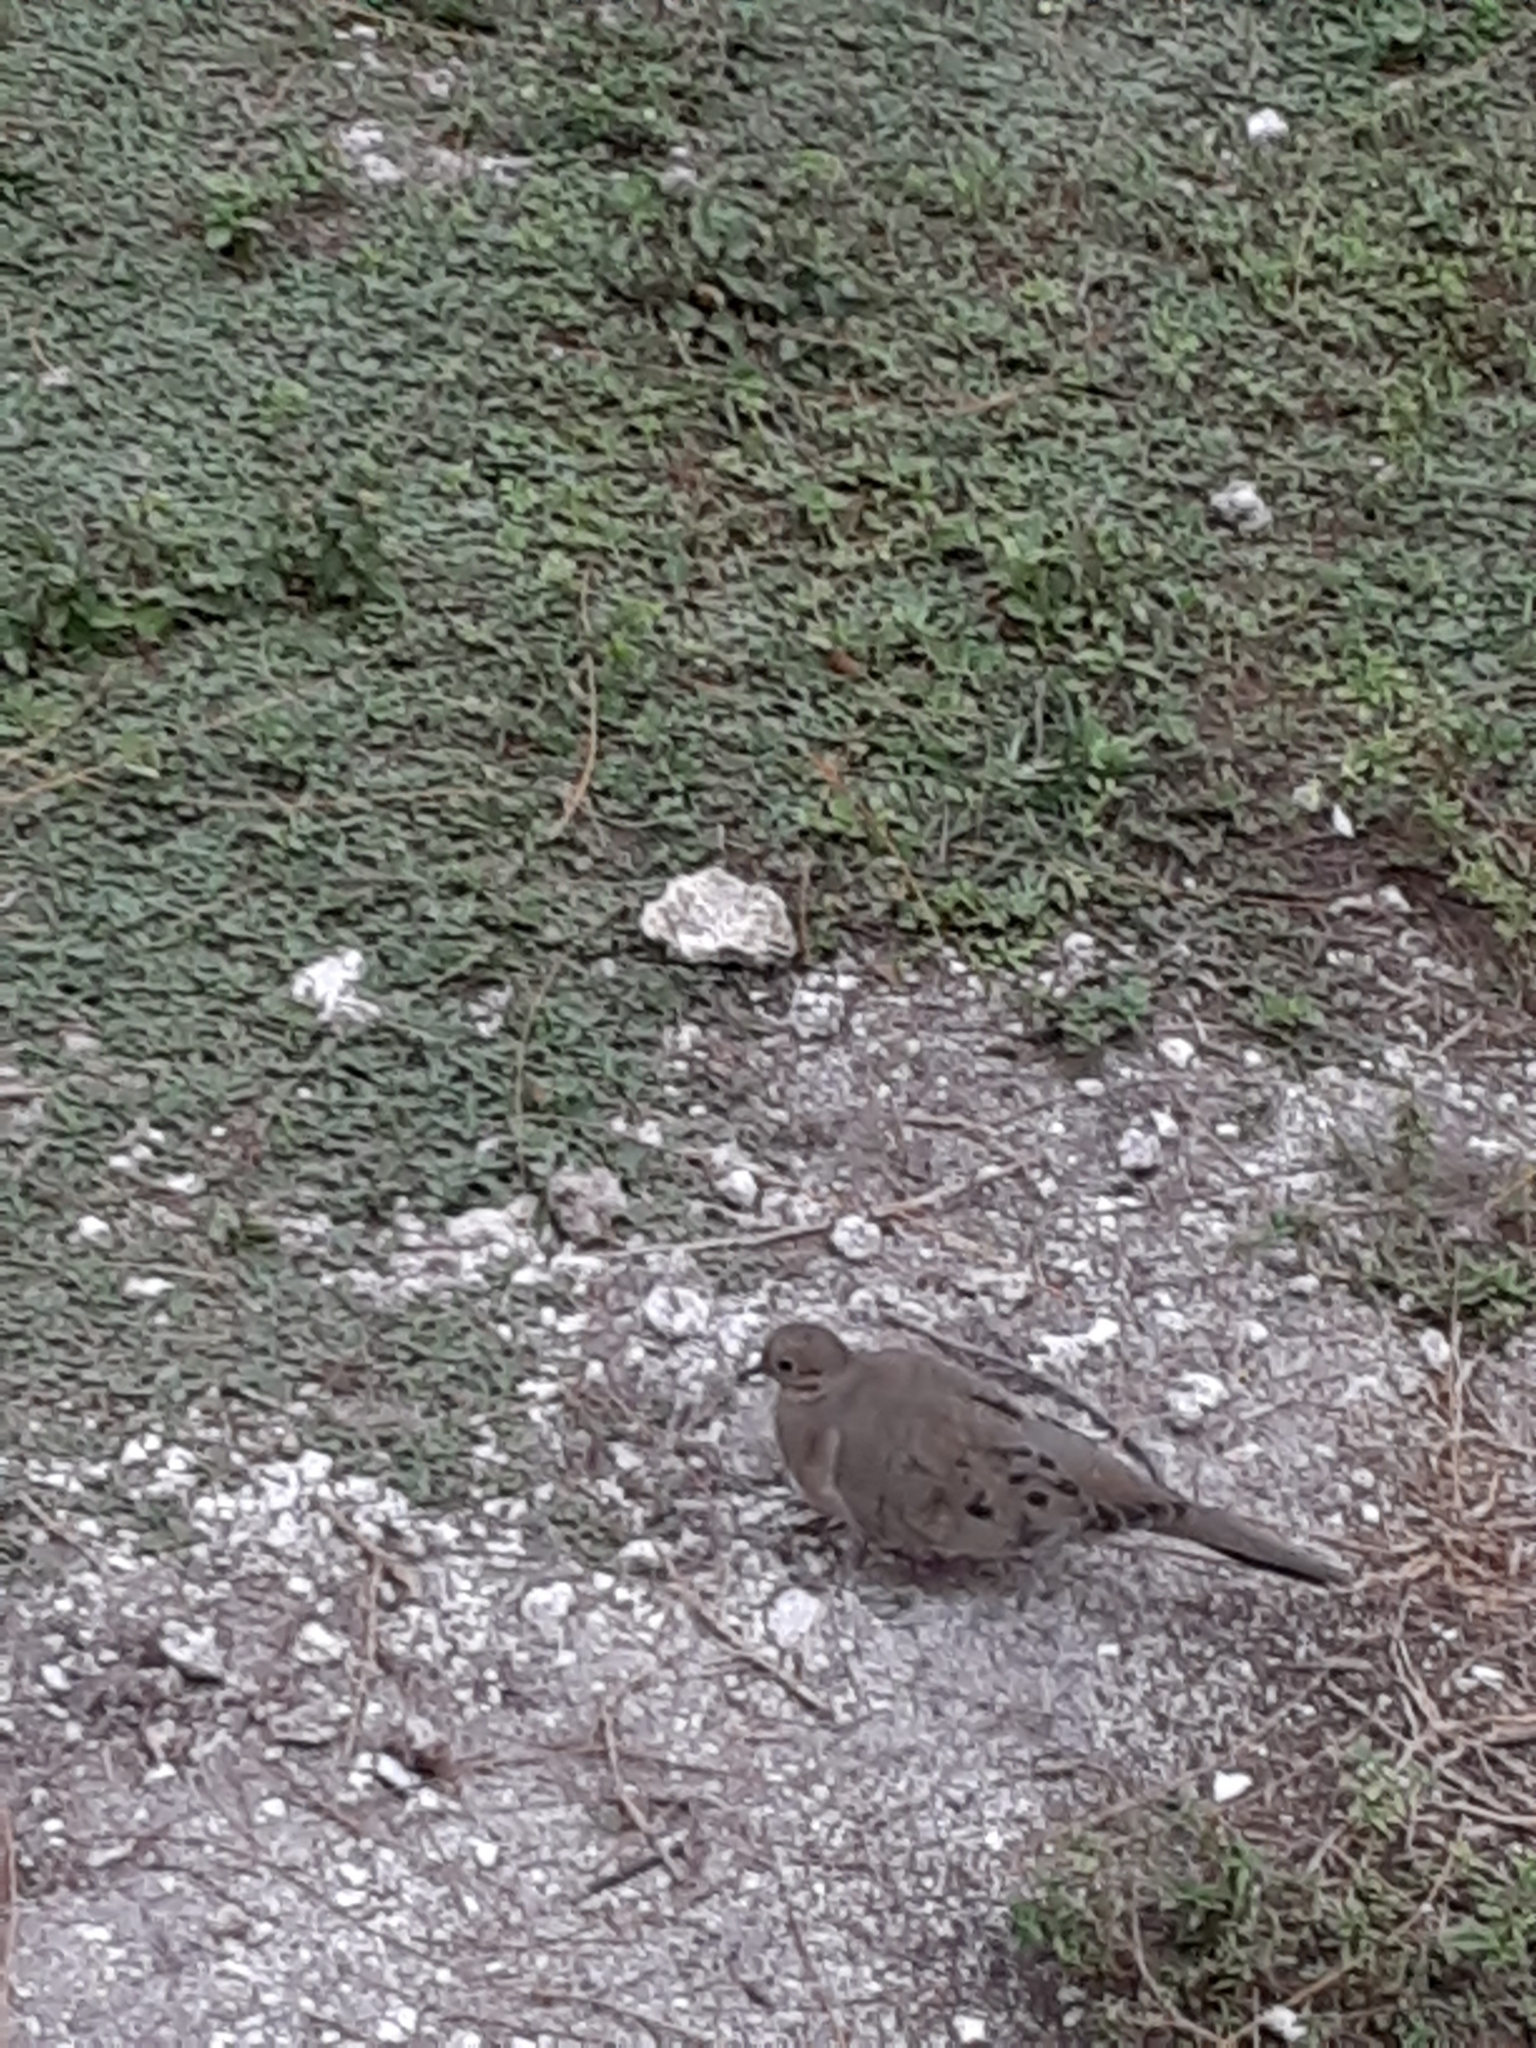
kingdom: Animalia
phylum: Chordata
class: Aves
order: Columbiformes
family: Columbidae
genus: Zenaida
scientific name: Zenaida macroura
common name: Mourning dove
